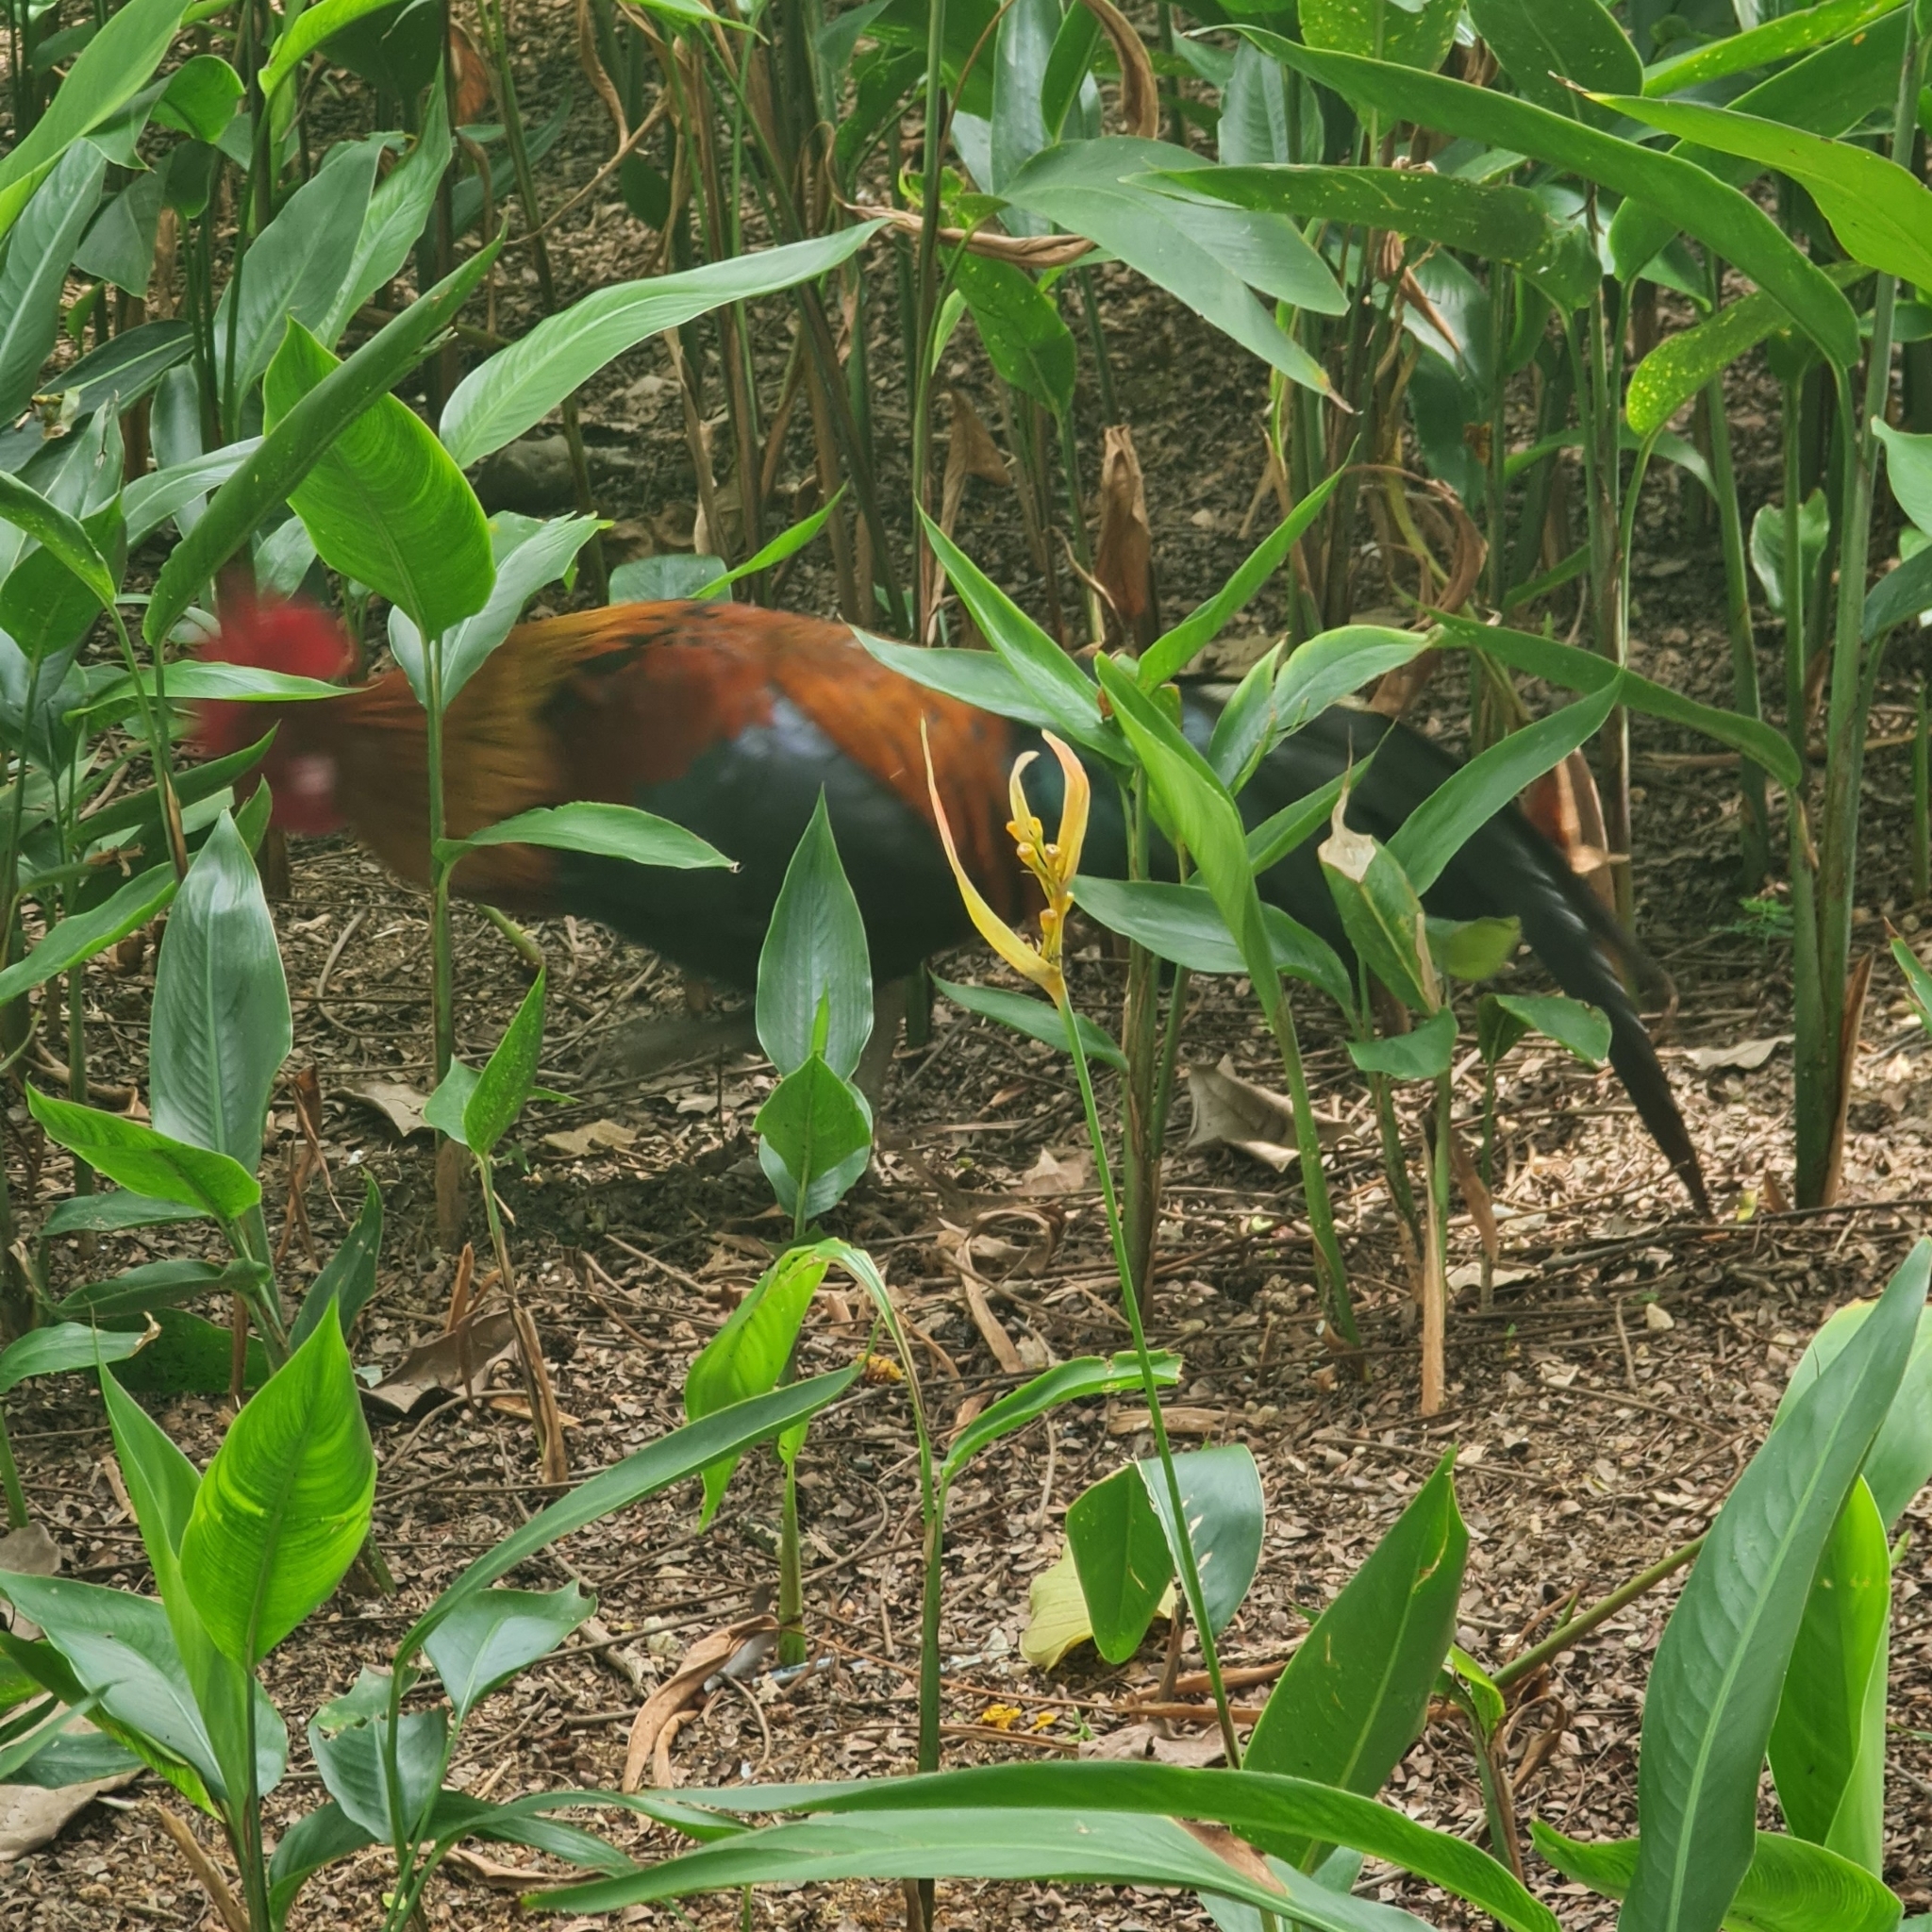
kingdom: Animalia
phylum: Chordata
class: Aves
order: Galliformes
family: Phasianidae
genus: Gallus
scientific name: Gallus gallus
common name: Red junglefowl
